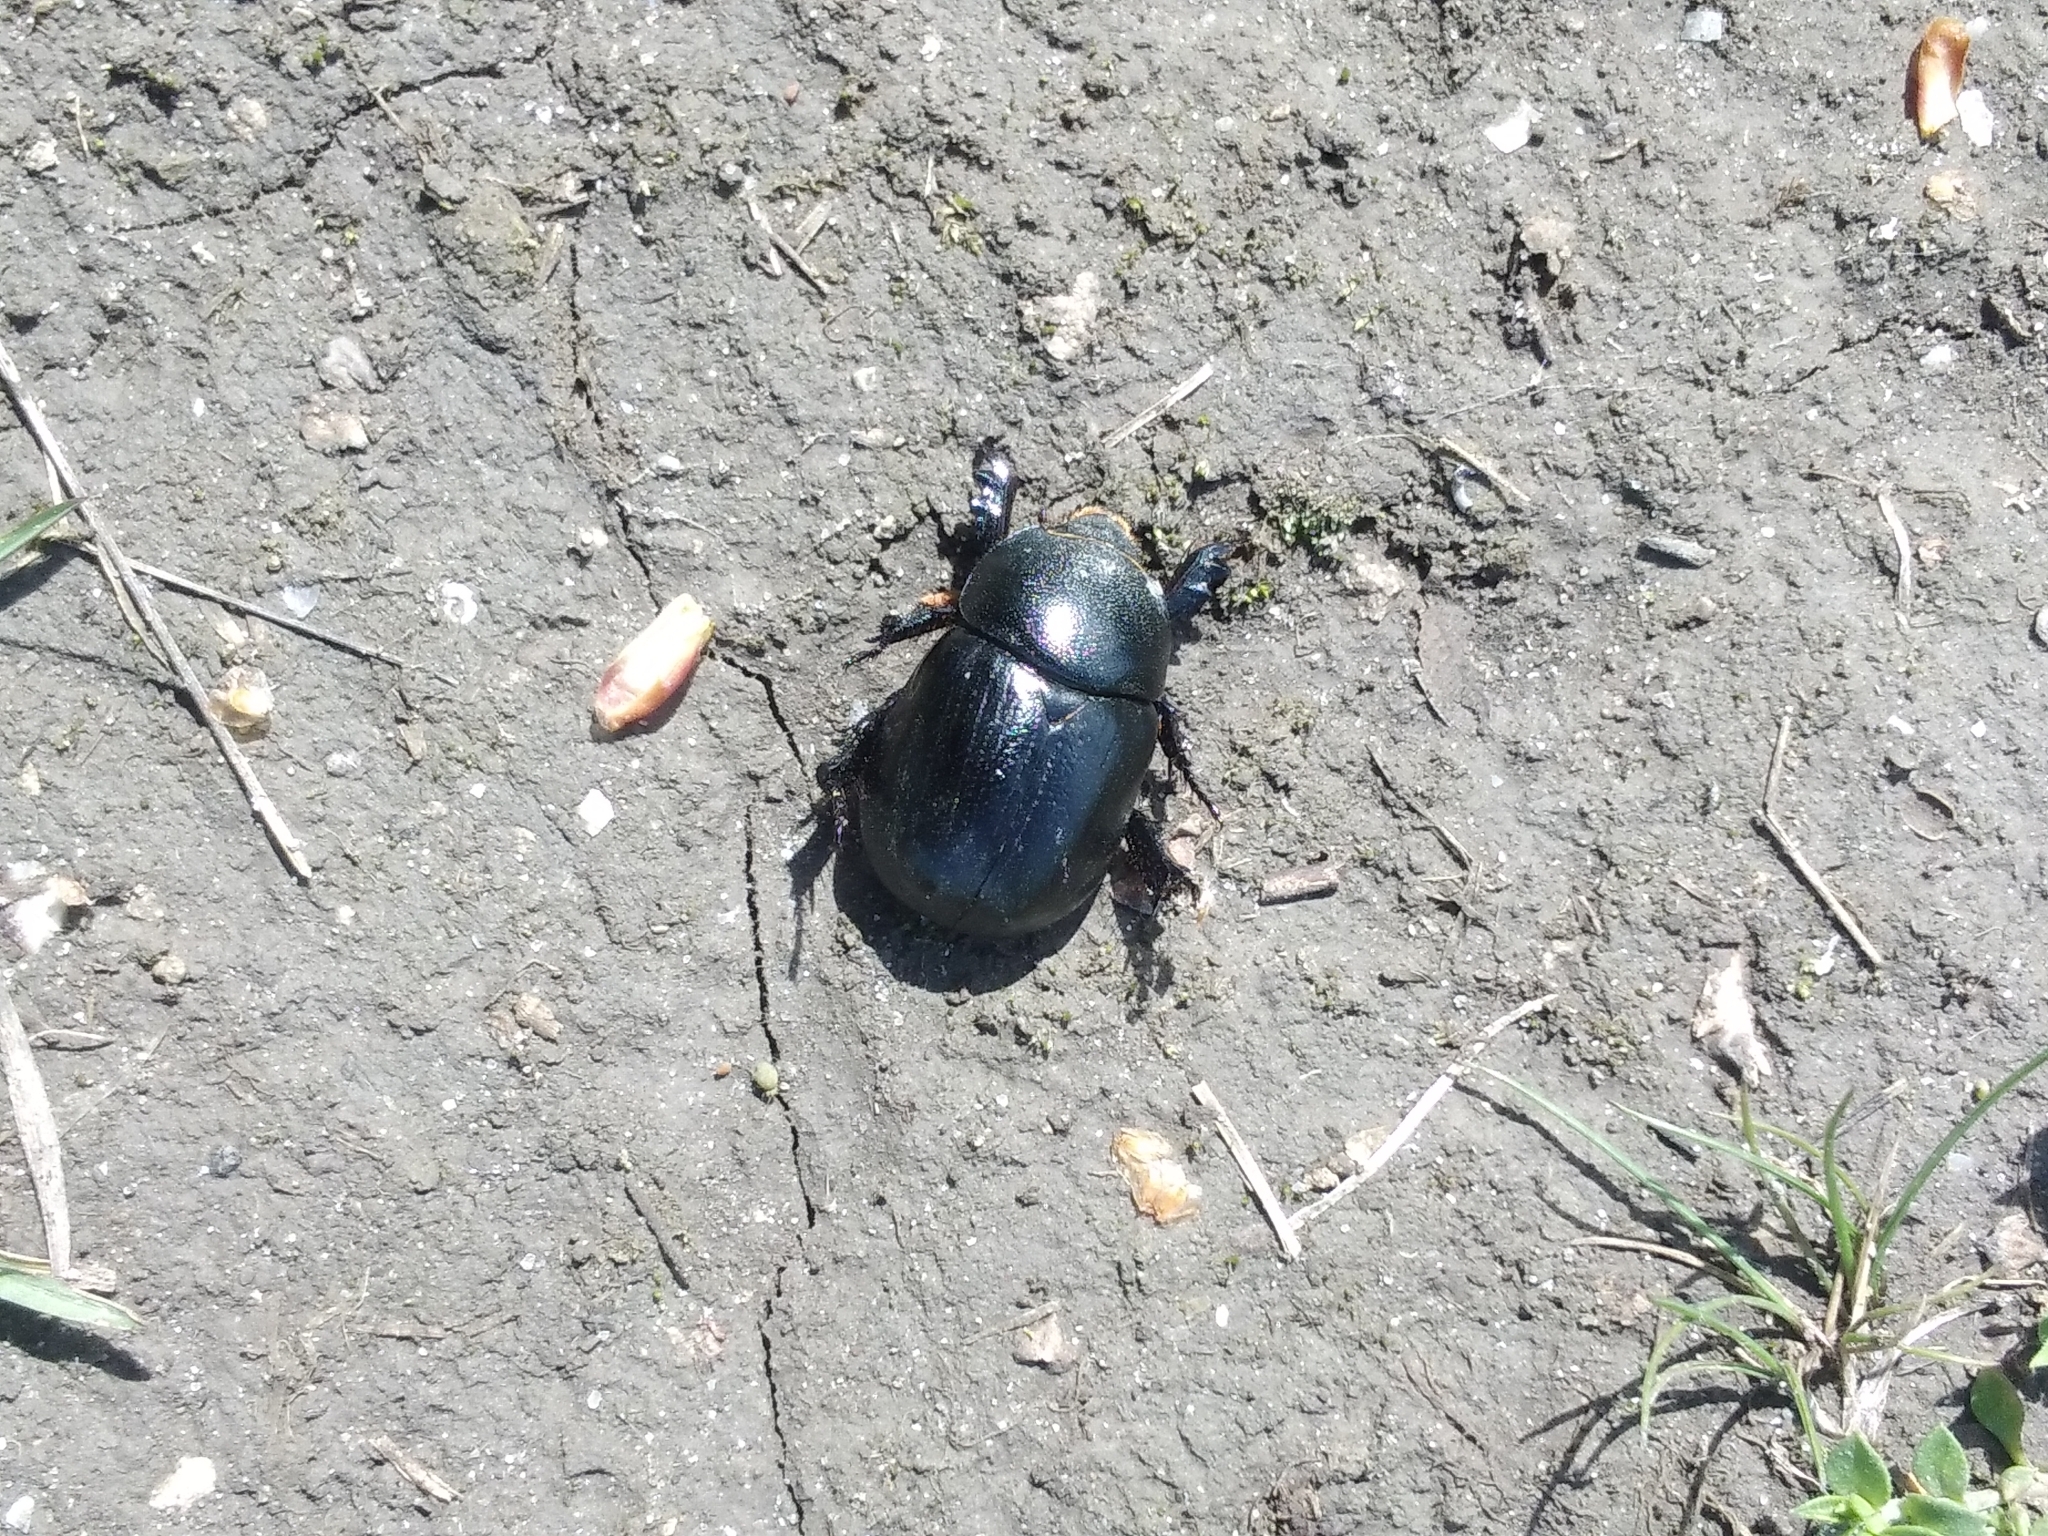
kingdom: Animalia
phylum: Arthropoda
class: Insecta
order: Coleoptera
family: Scarabaeidae
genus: Pentodon
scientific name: Pentodon idiota
